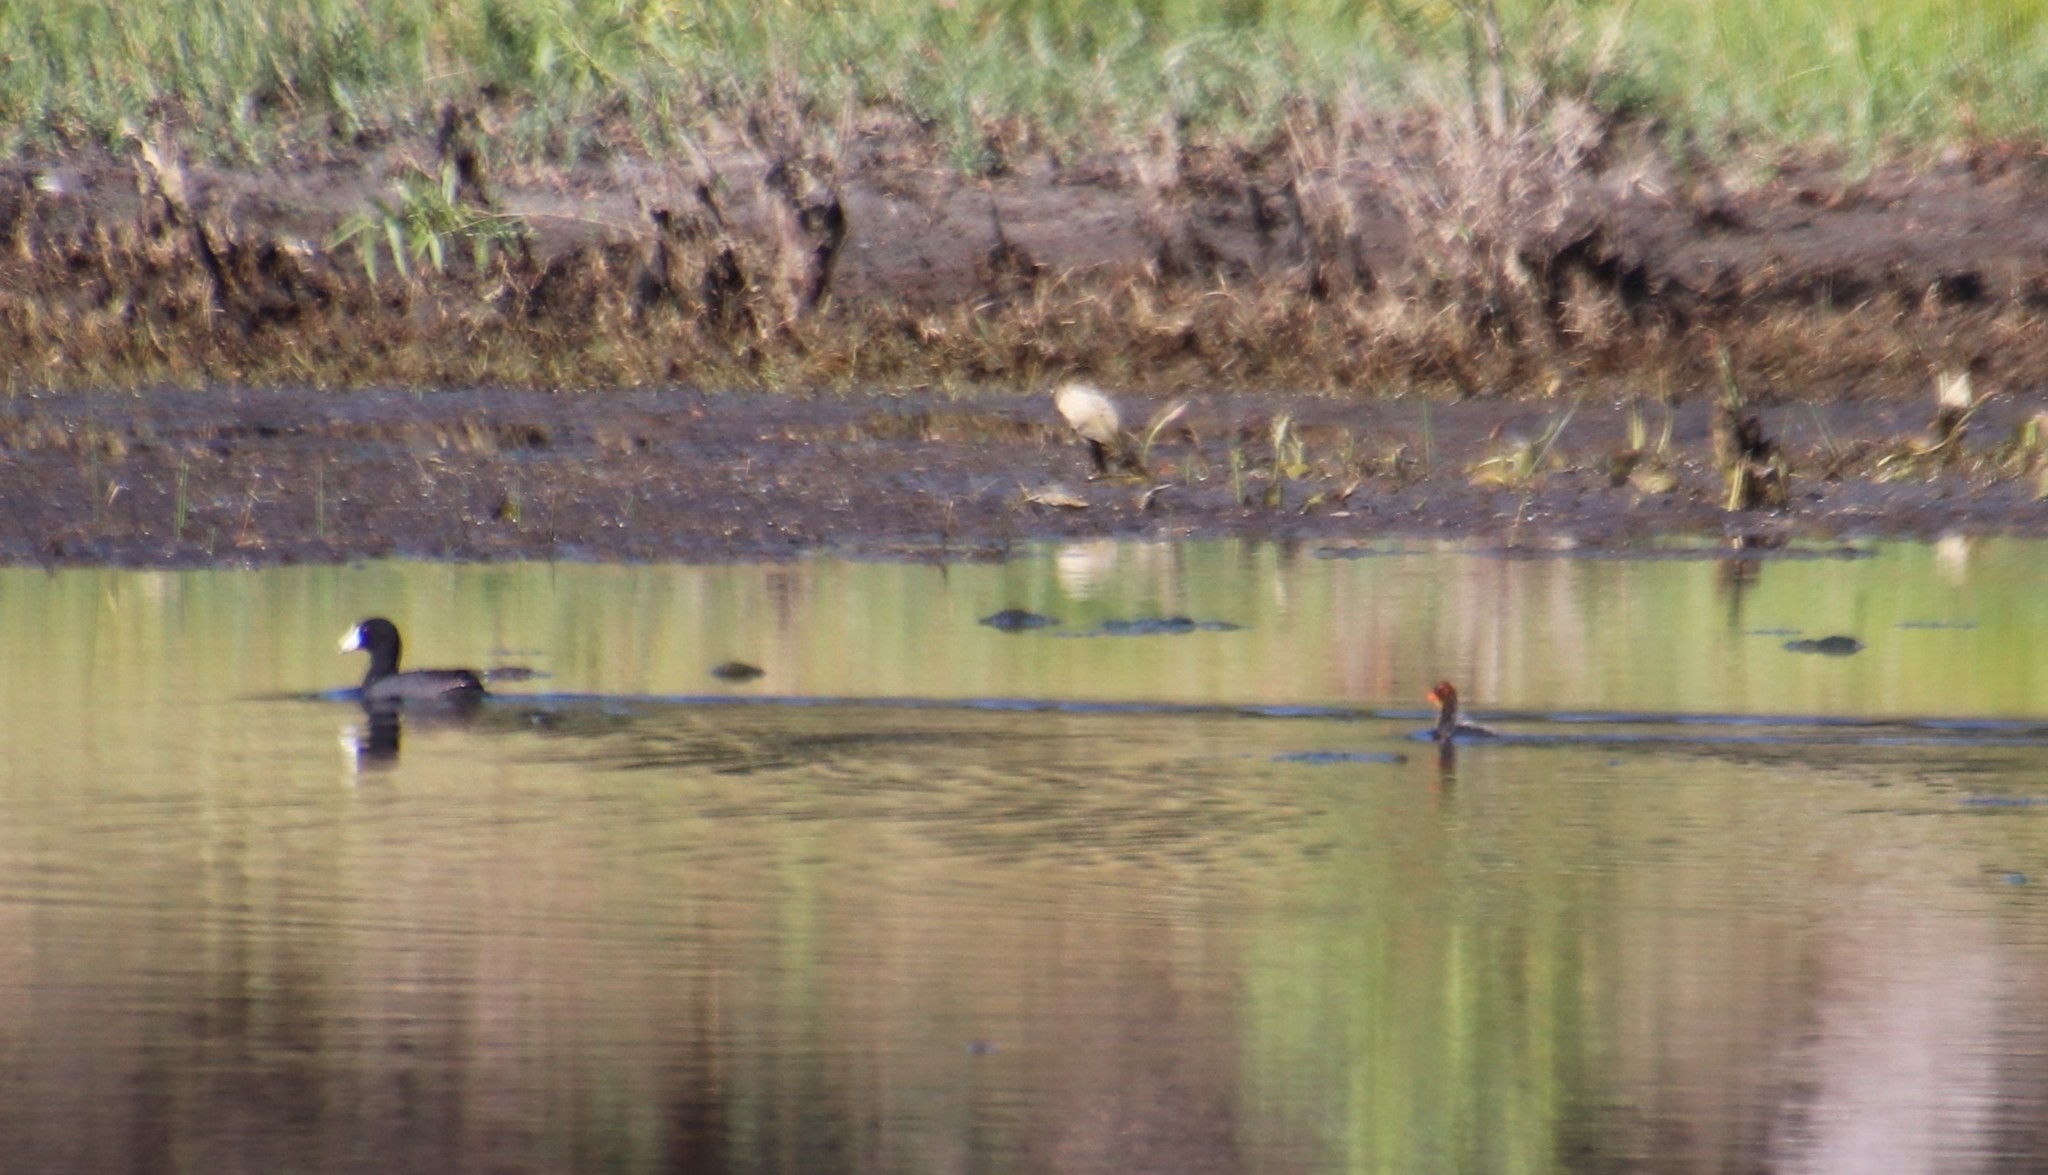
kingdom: Animalia
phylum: Chordata
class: Aves
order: Gruiformes
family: Rallidae
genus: Fulica
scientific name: Fulica americana
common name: American coot
